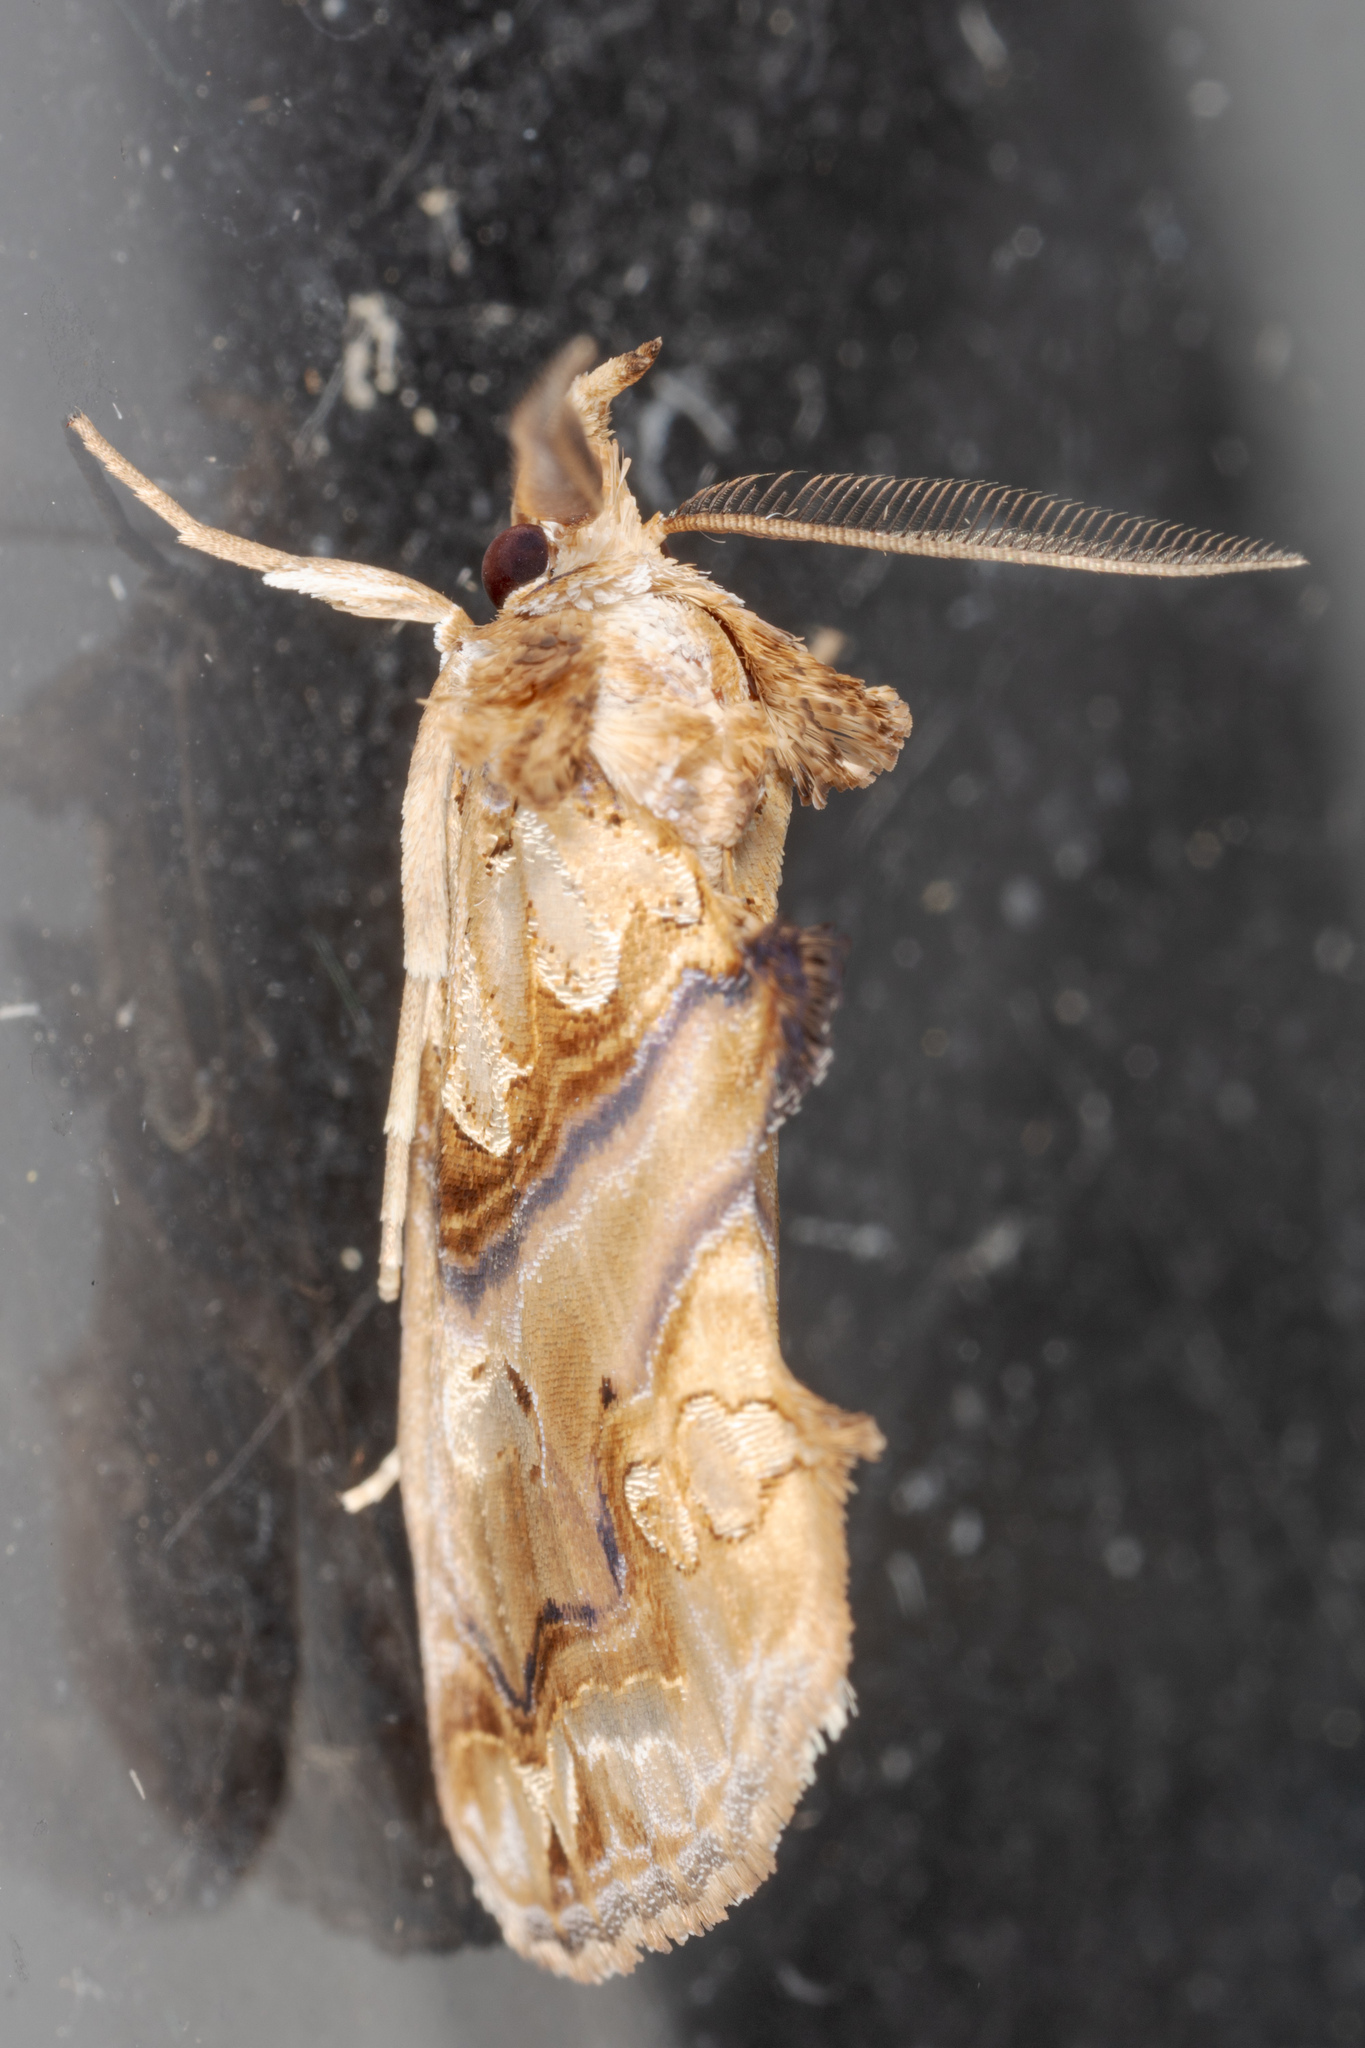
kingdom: Animalia
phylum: Arthropoda
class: Insecta
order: Lepidoptera
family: Erebidae
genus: Plusiodonta
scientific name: Plusiodonta compressipalpis
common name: Moonseed moth
